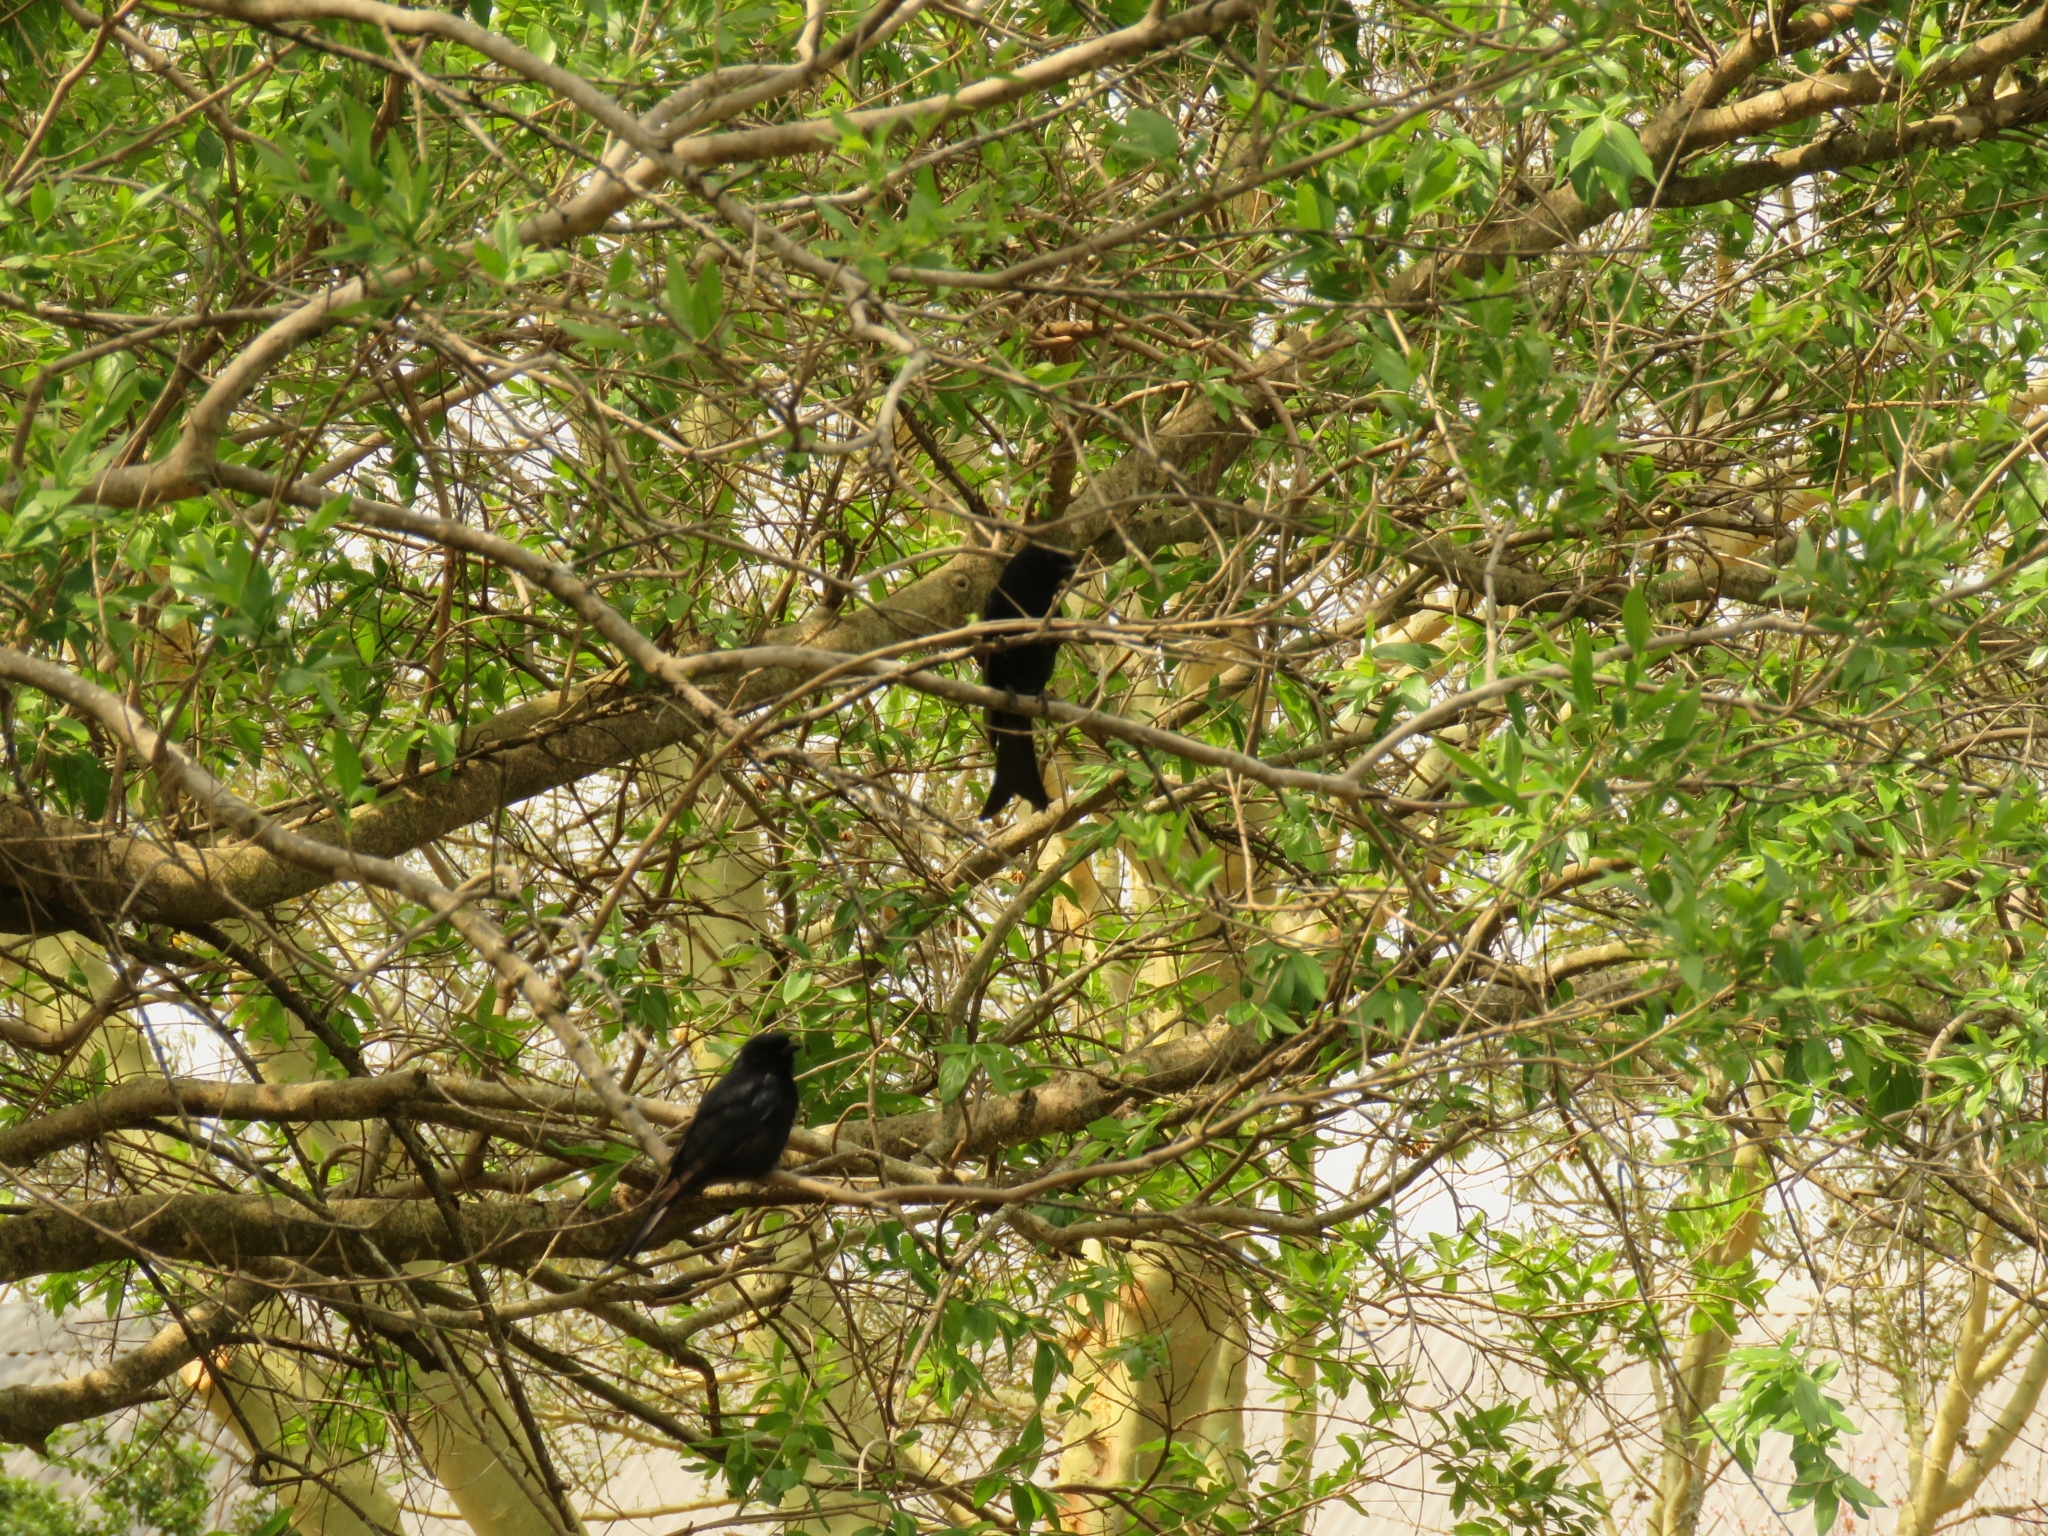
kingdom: Animalia
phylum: Chordata
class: Aves
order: Passeriformes
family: Dicruridae
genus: Dicrurus
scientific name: Dicrurus adsimilis
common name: Fork-tailed drongo
